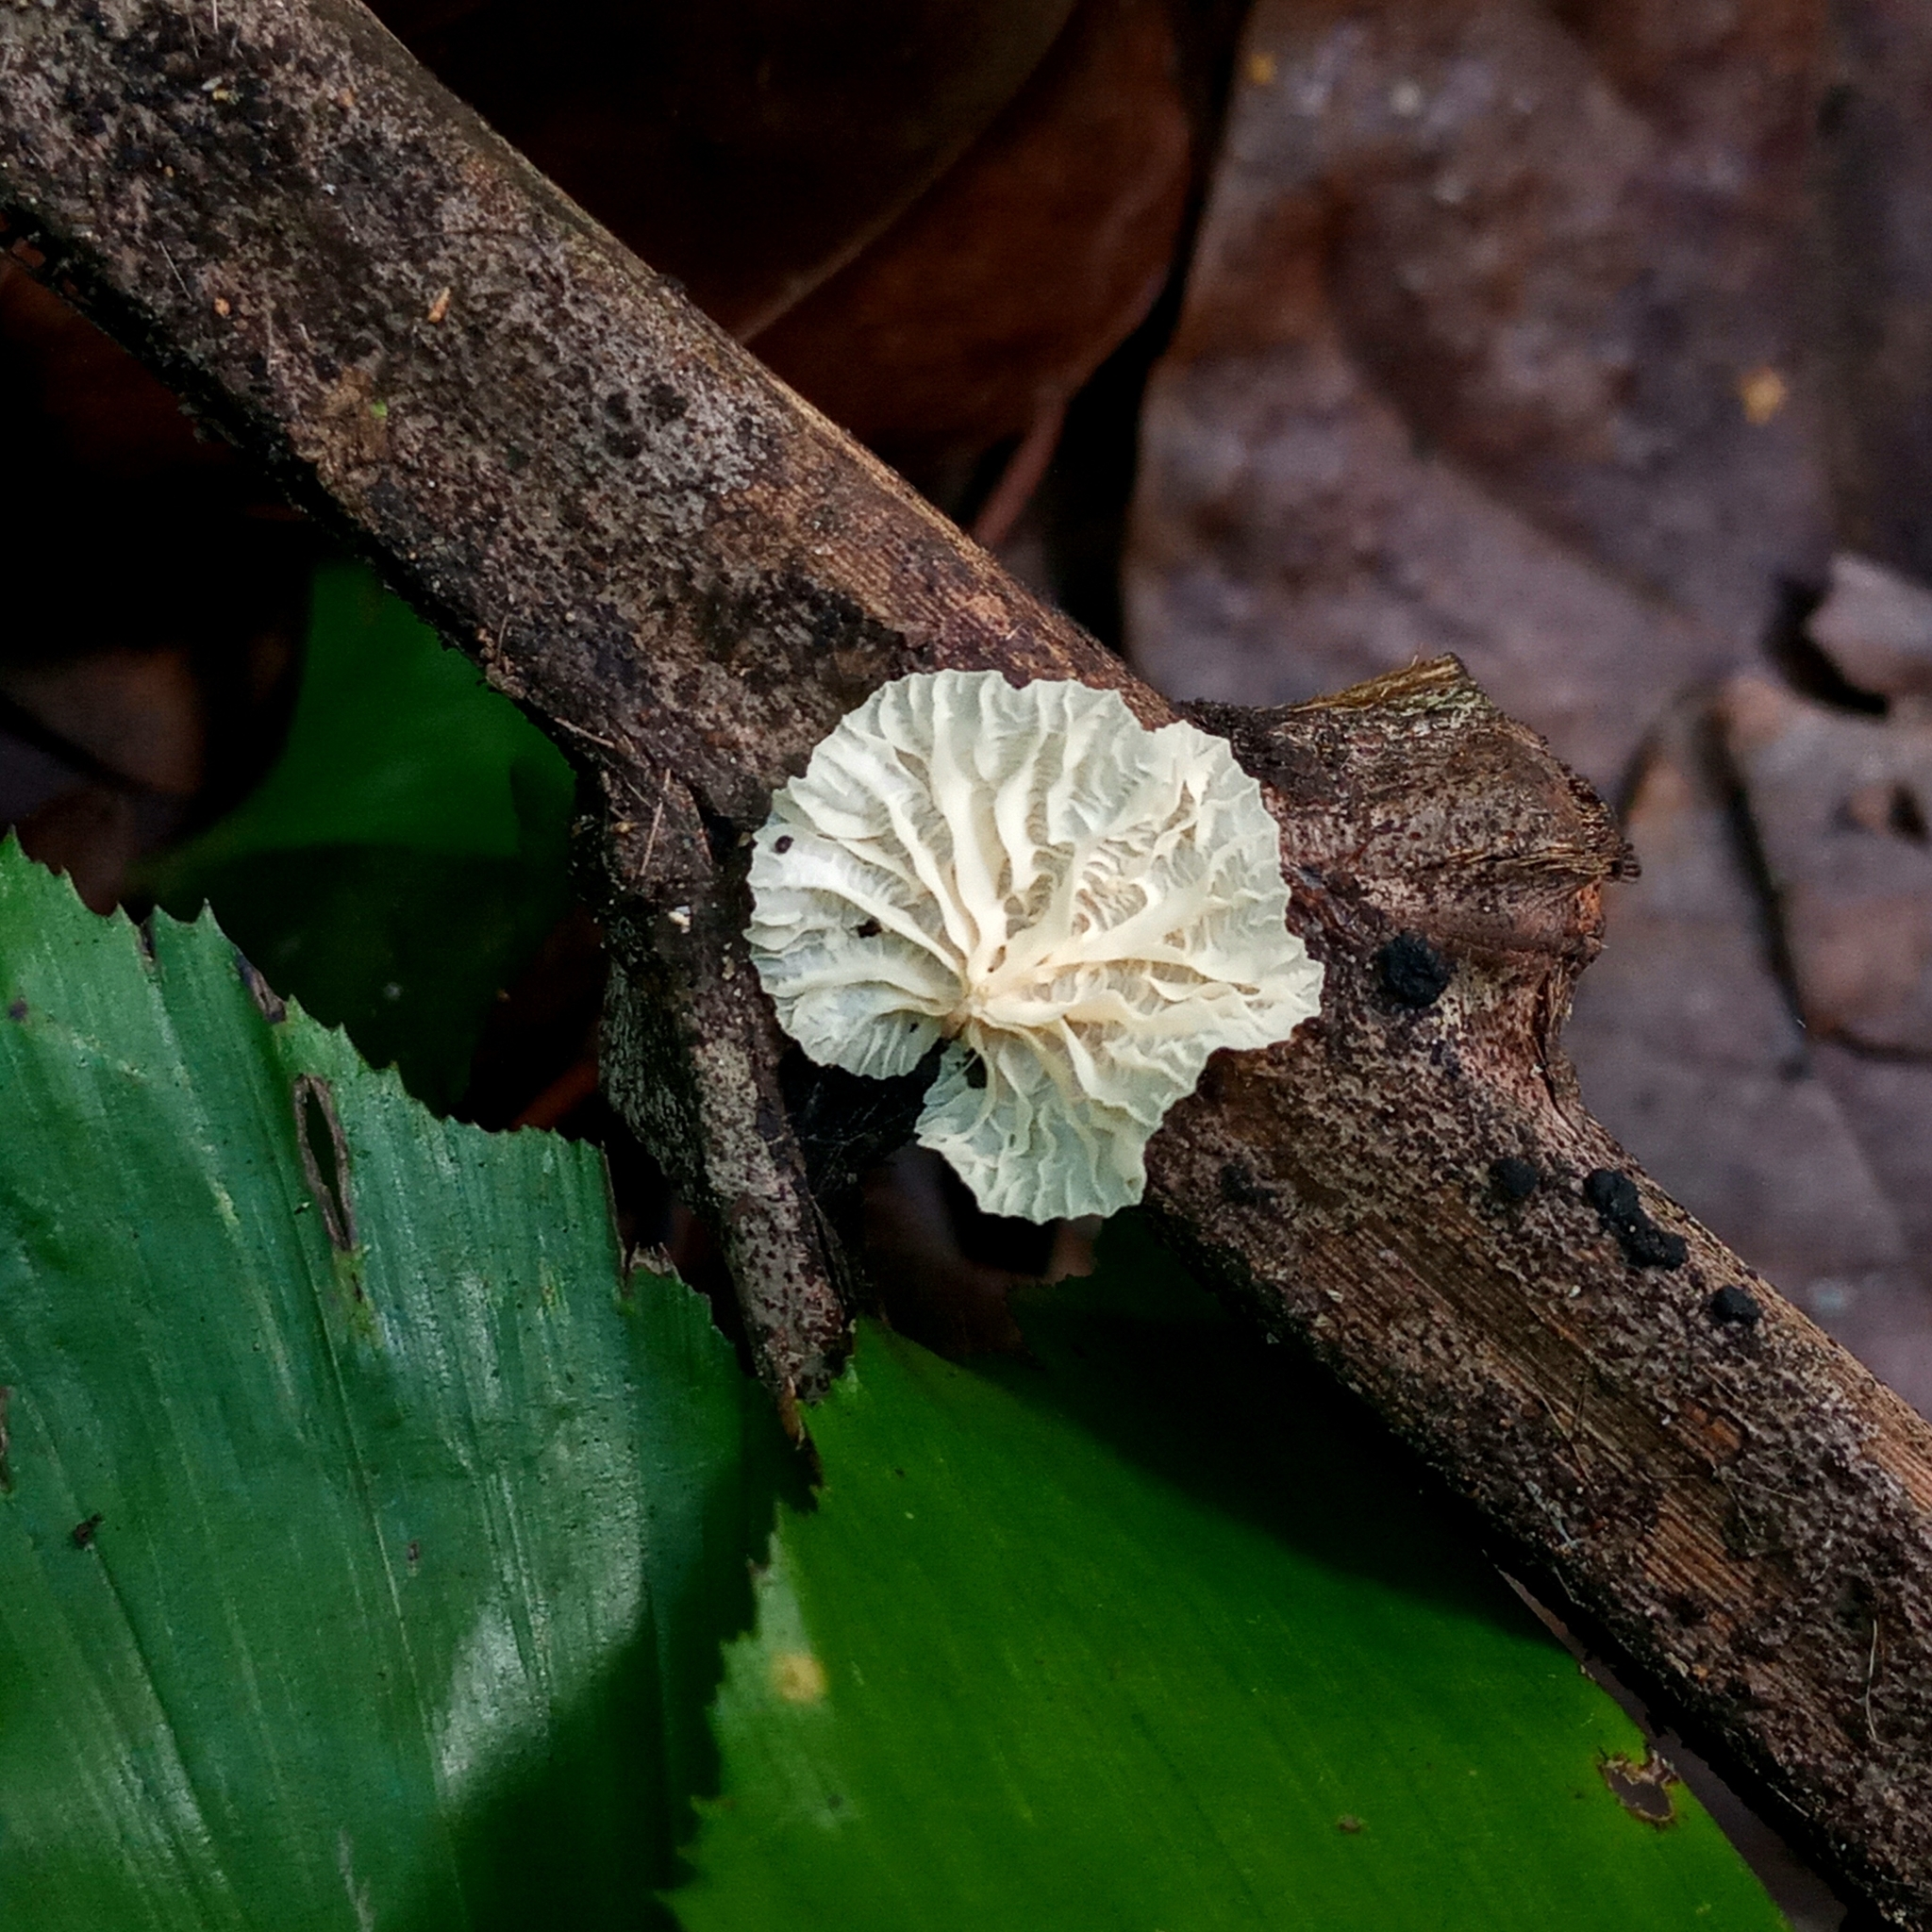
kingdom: Fungi
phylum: Basidiomycota
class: Agaricomycetes
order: Agaricales
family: Marasmiaceae
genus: Campanella
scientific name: Campanella junghuhnii
